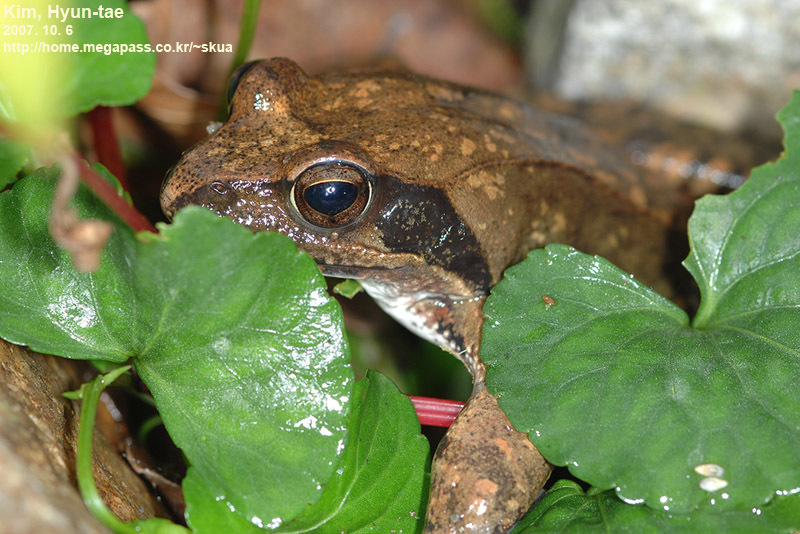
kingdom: Animalia
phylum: Chordata
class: Amphibia
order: Anura
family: Ranidae
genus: Rana
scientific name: Rana uenoi
